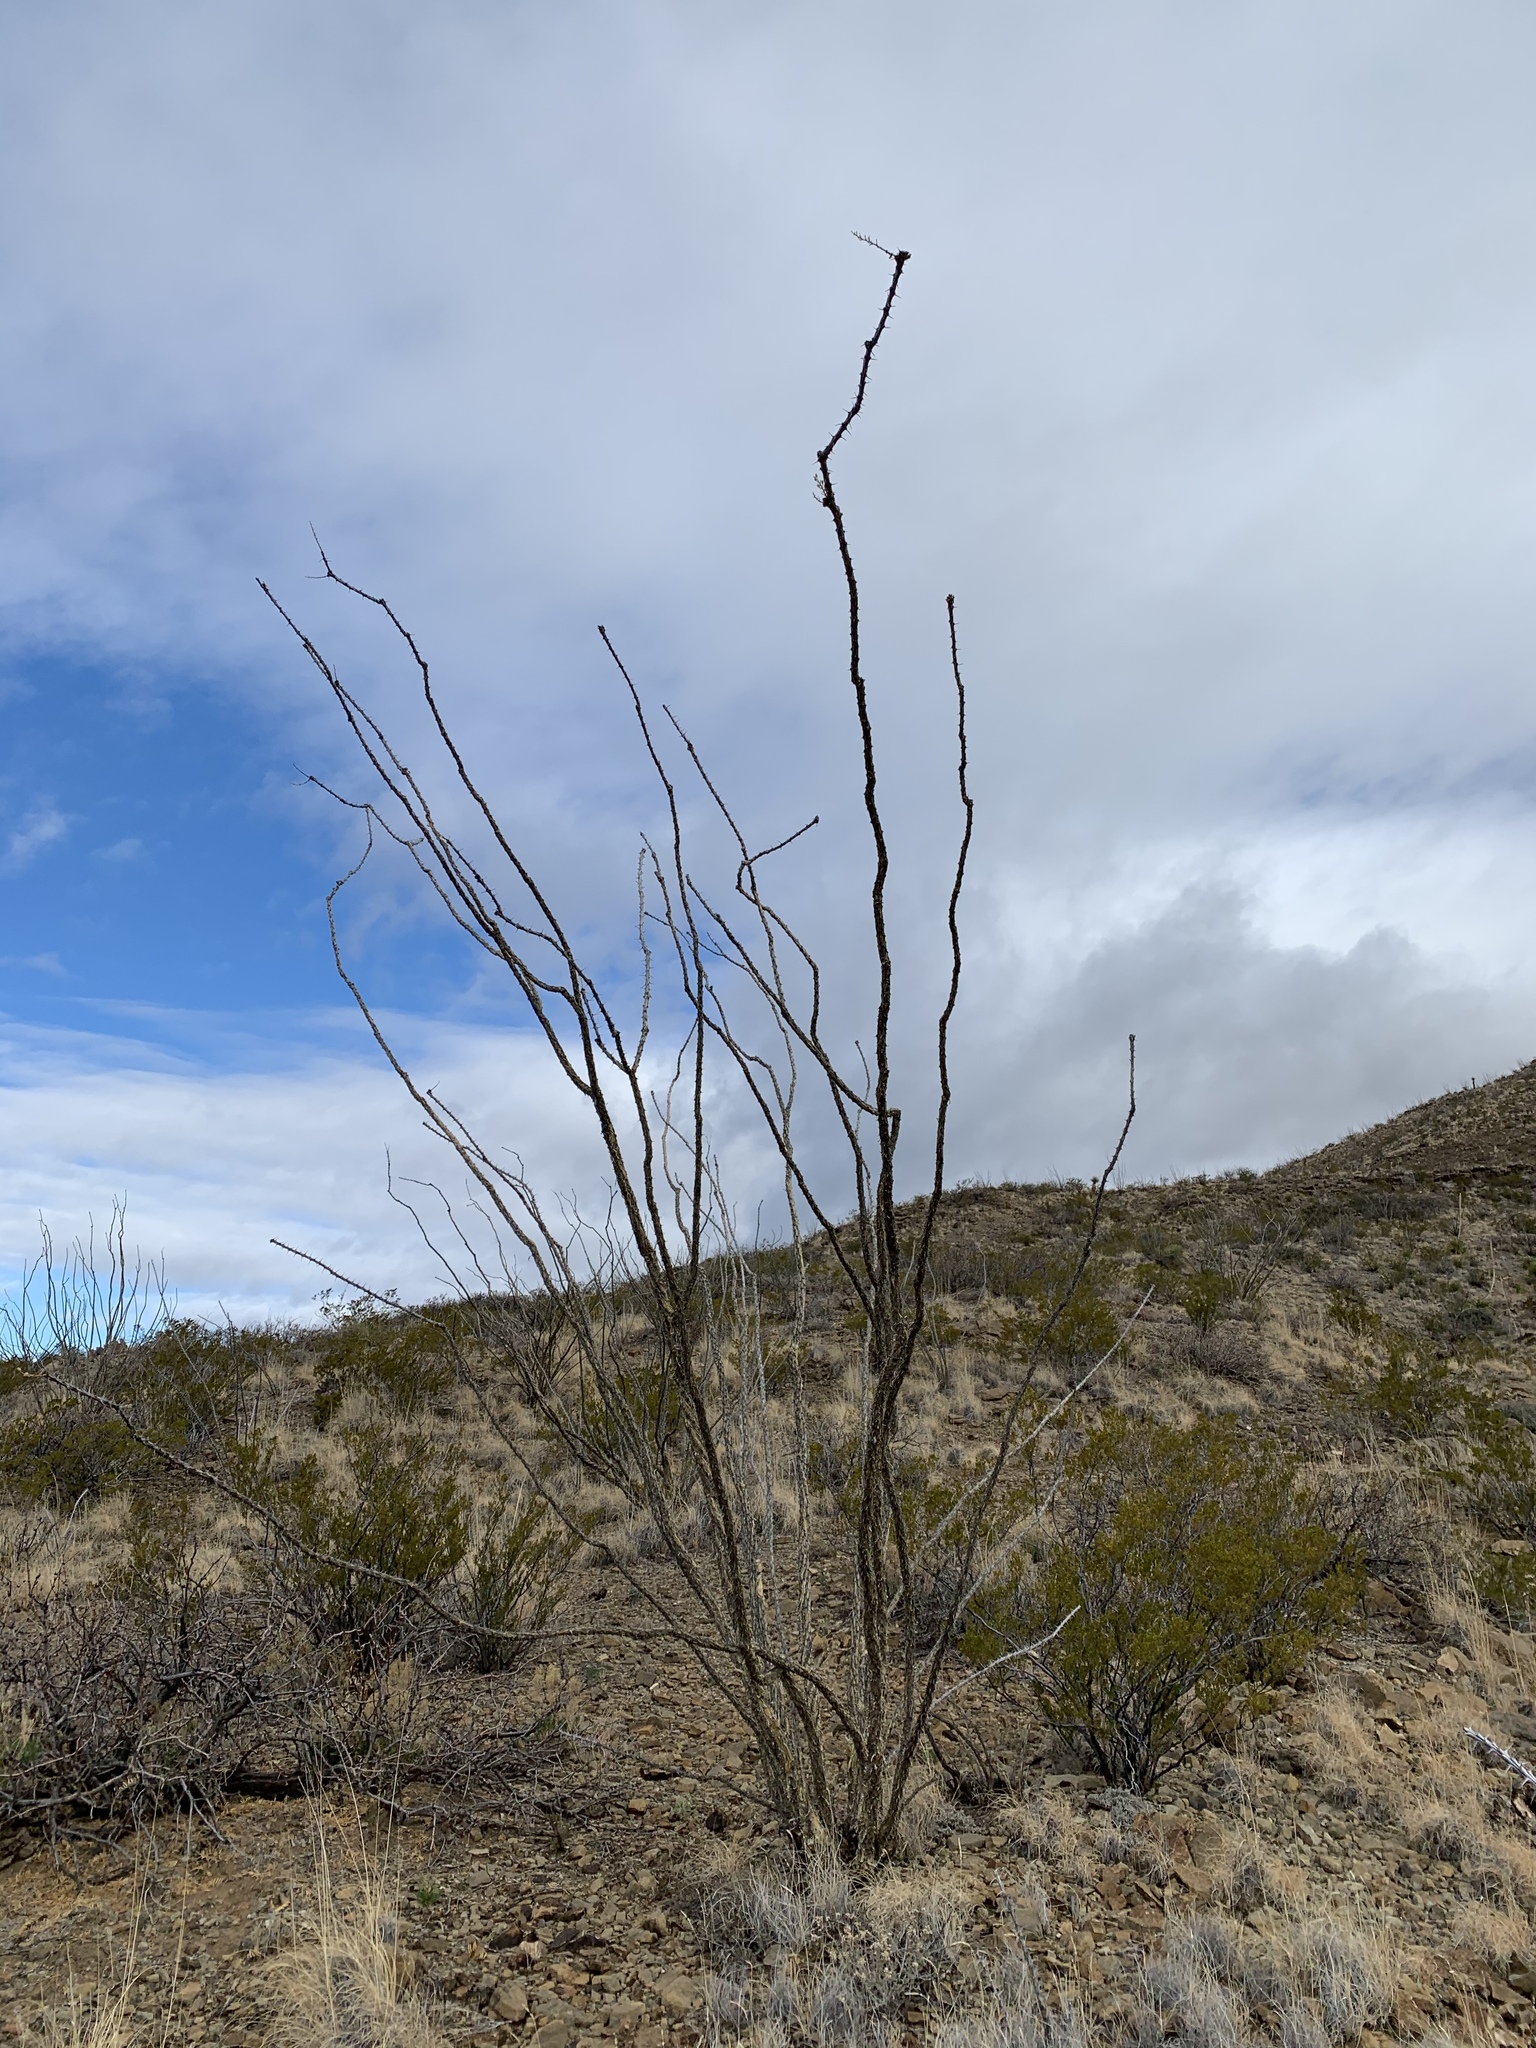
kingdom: Plantae
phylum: Tracheophyta
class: Magnoliopsida
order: Ericales
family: Fouquieriaceae
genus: Fouquieria
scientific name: Fouquieria splendens
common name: Vine-cactus
